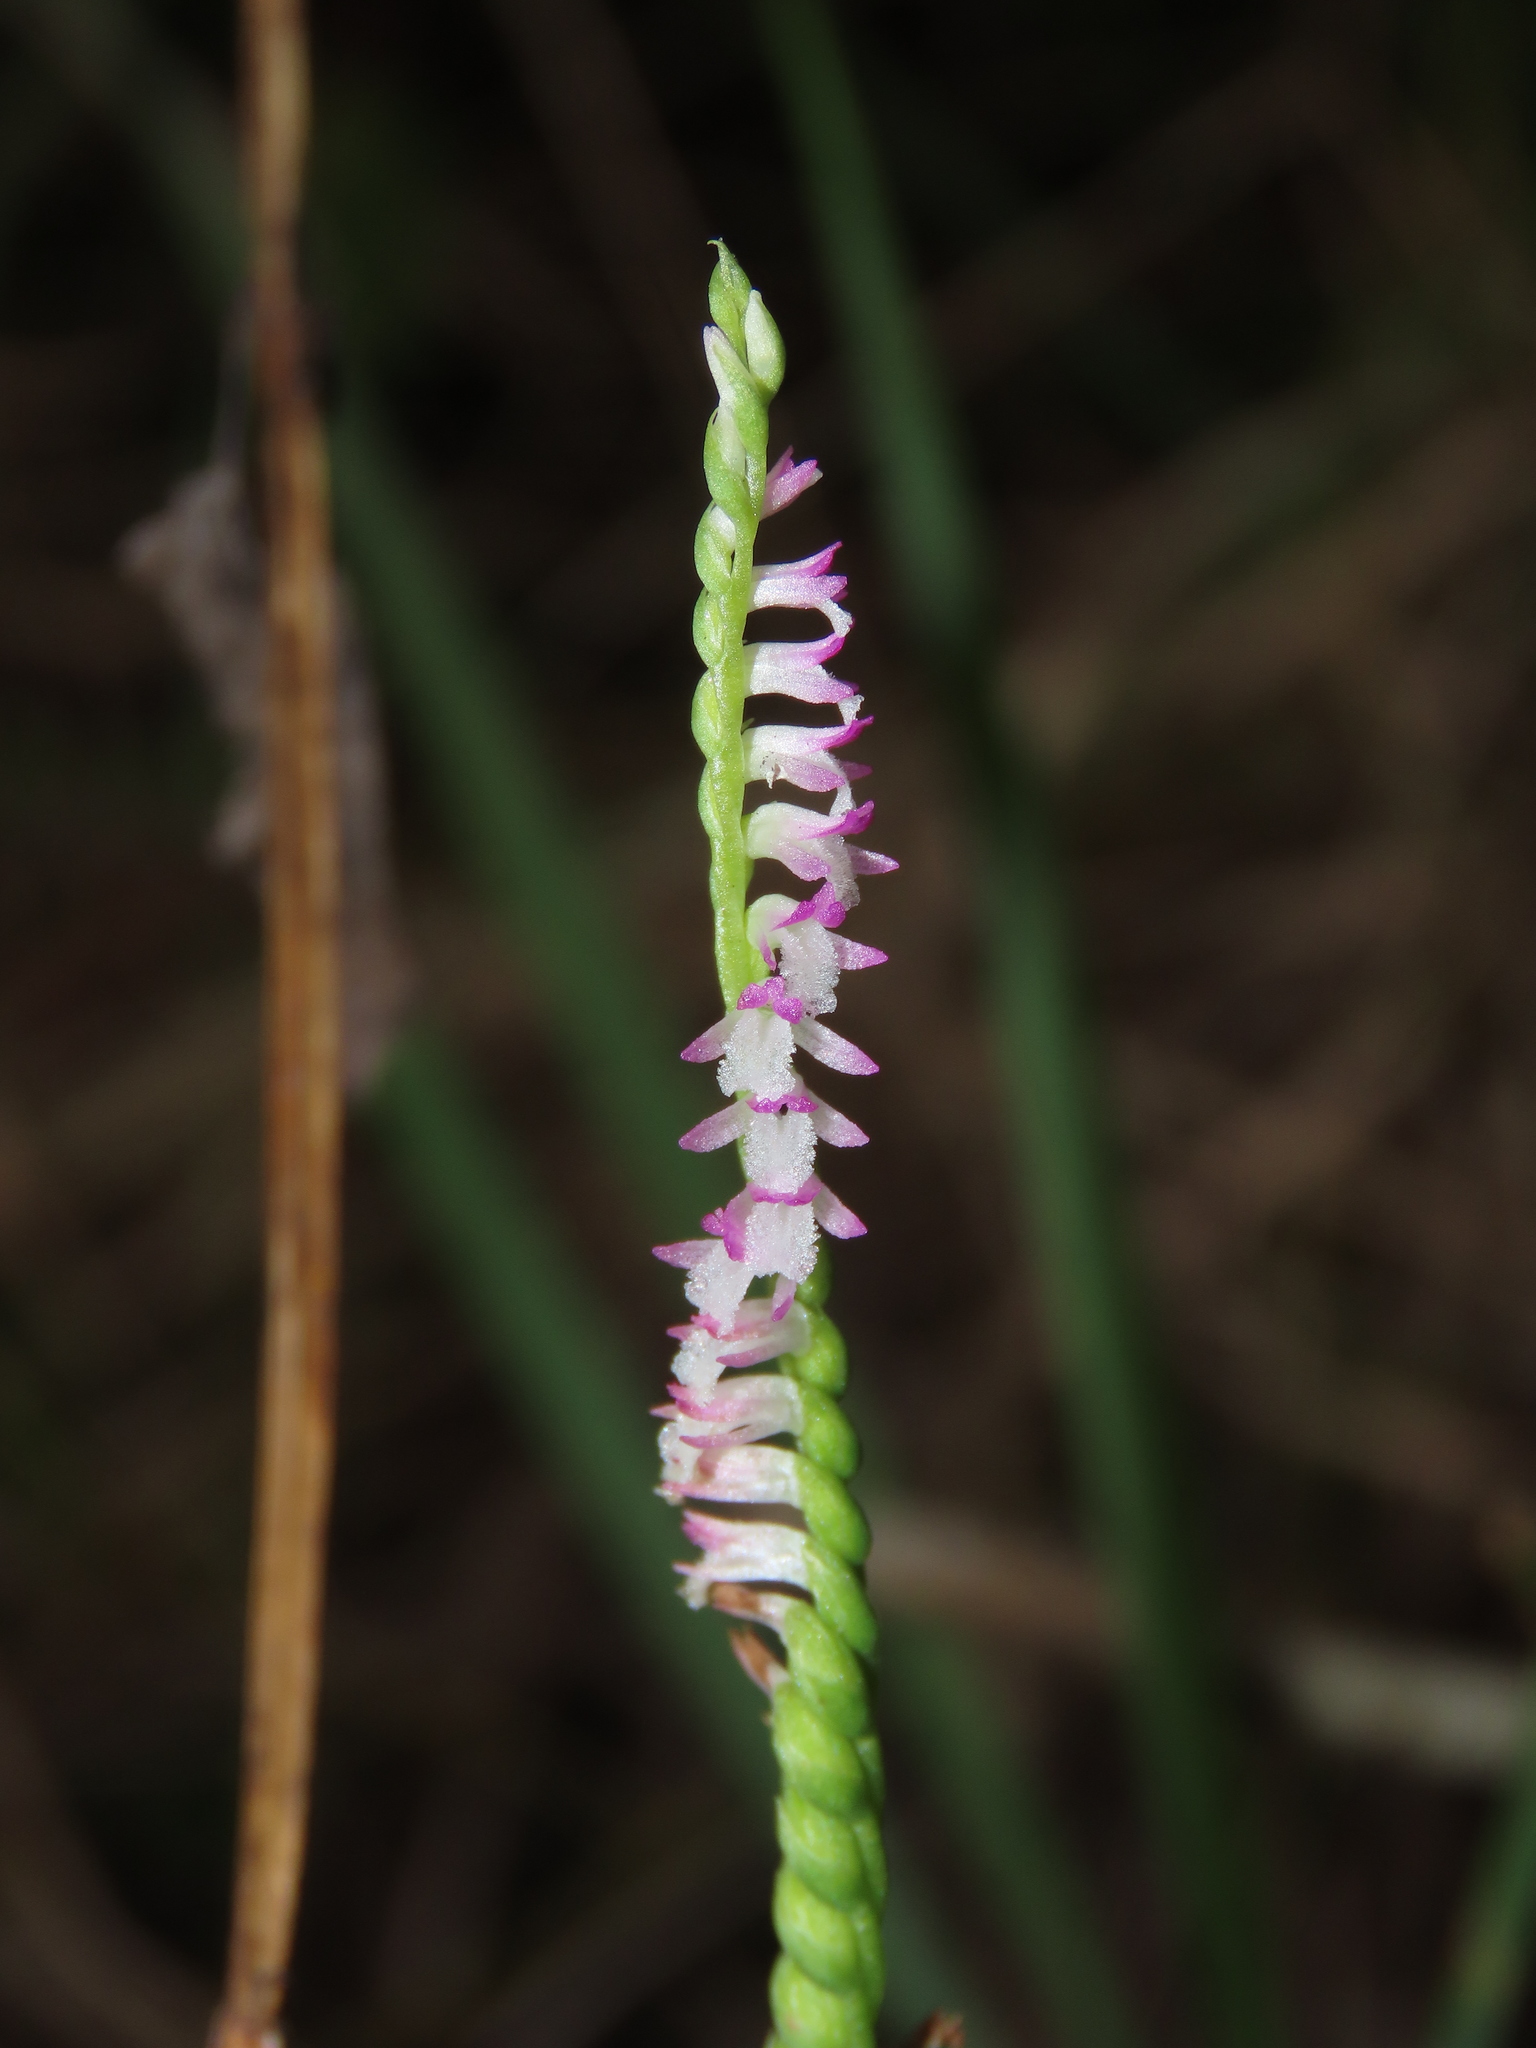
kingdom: Plantae
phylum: Tracheophyta
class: Liliopsida
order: Asparagales
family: Orchidaceae
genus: Spiranthes
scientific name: Spiranthes sinensis
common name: Chinese spiranthes
